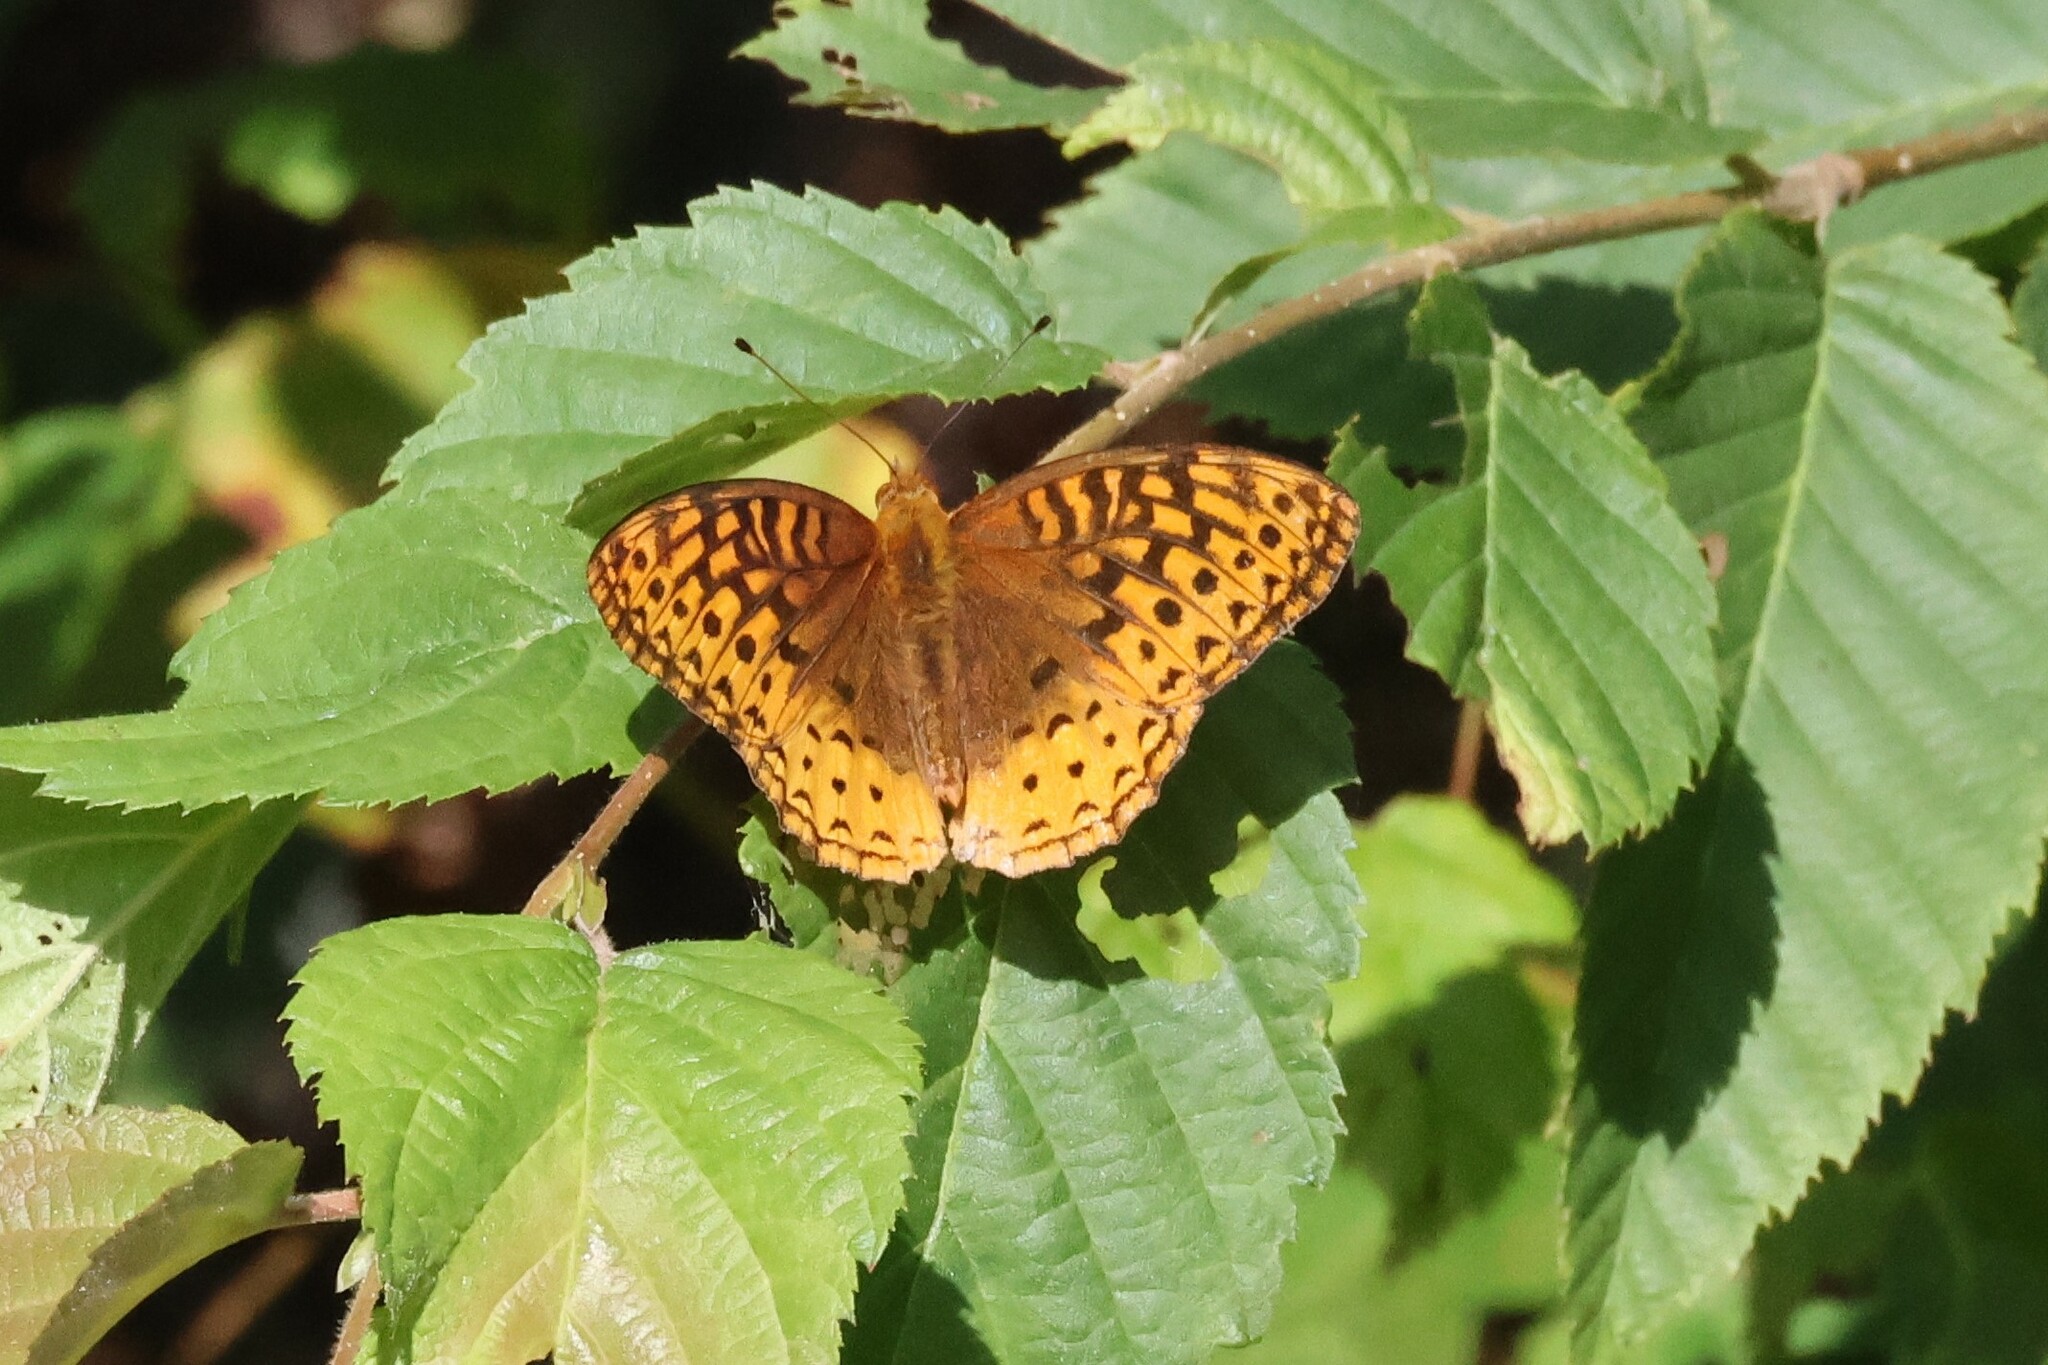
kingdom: Animalia
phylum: Arthropoda
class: Insecta
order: Lepidoptera
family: Nymphalidae
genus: Speyeria
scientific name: Speyeria cybele
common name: Great spangled fritillary
